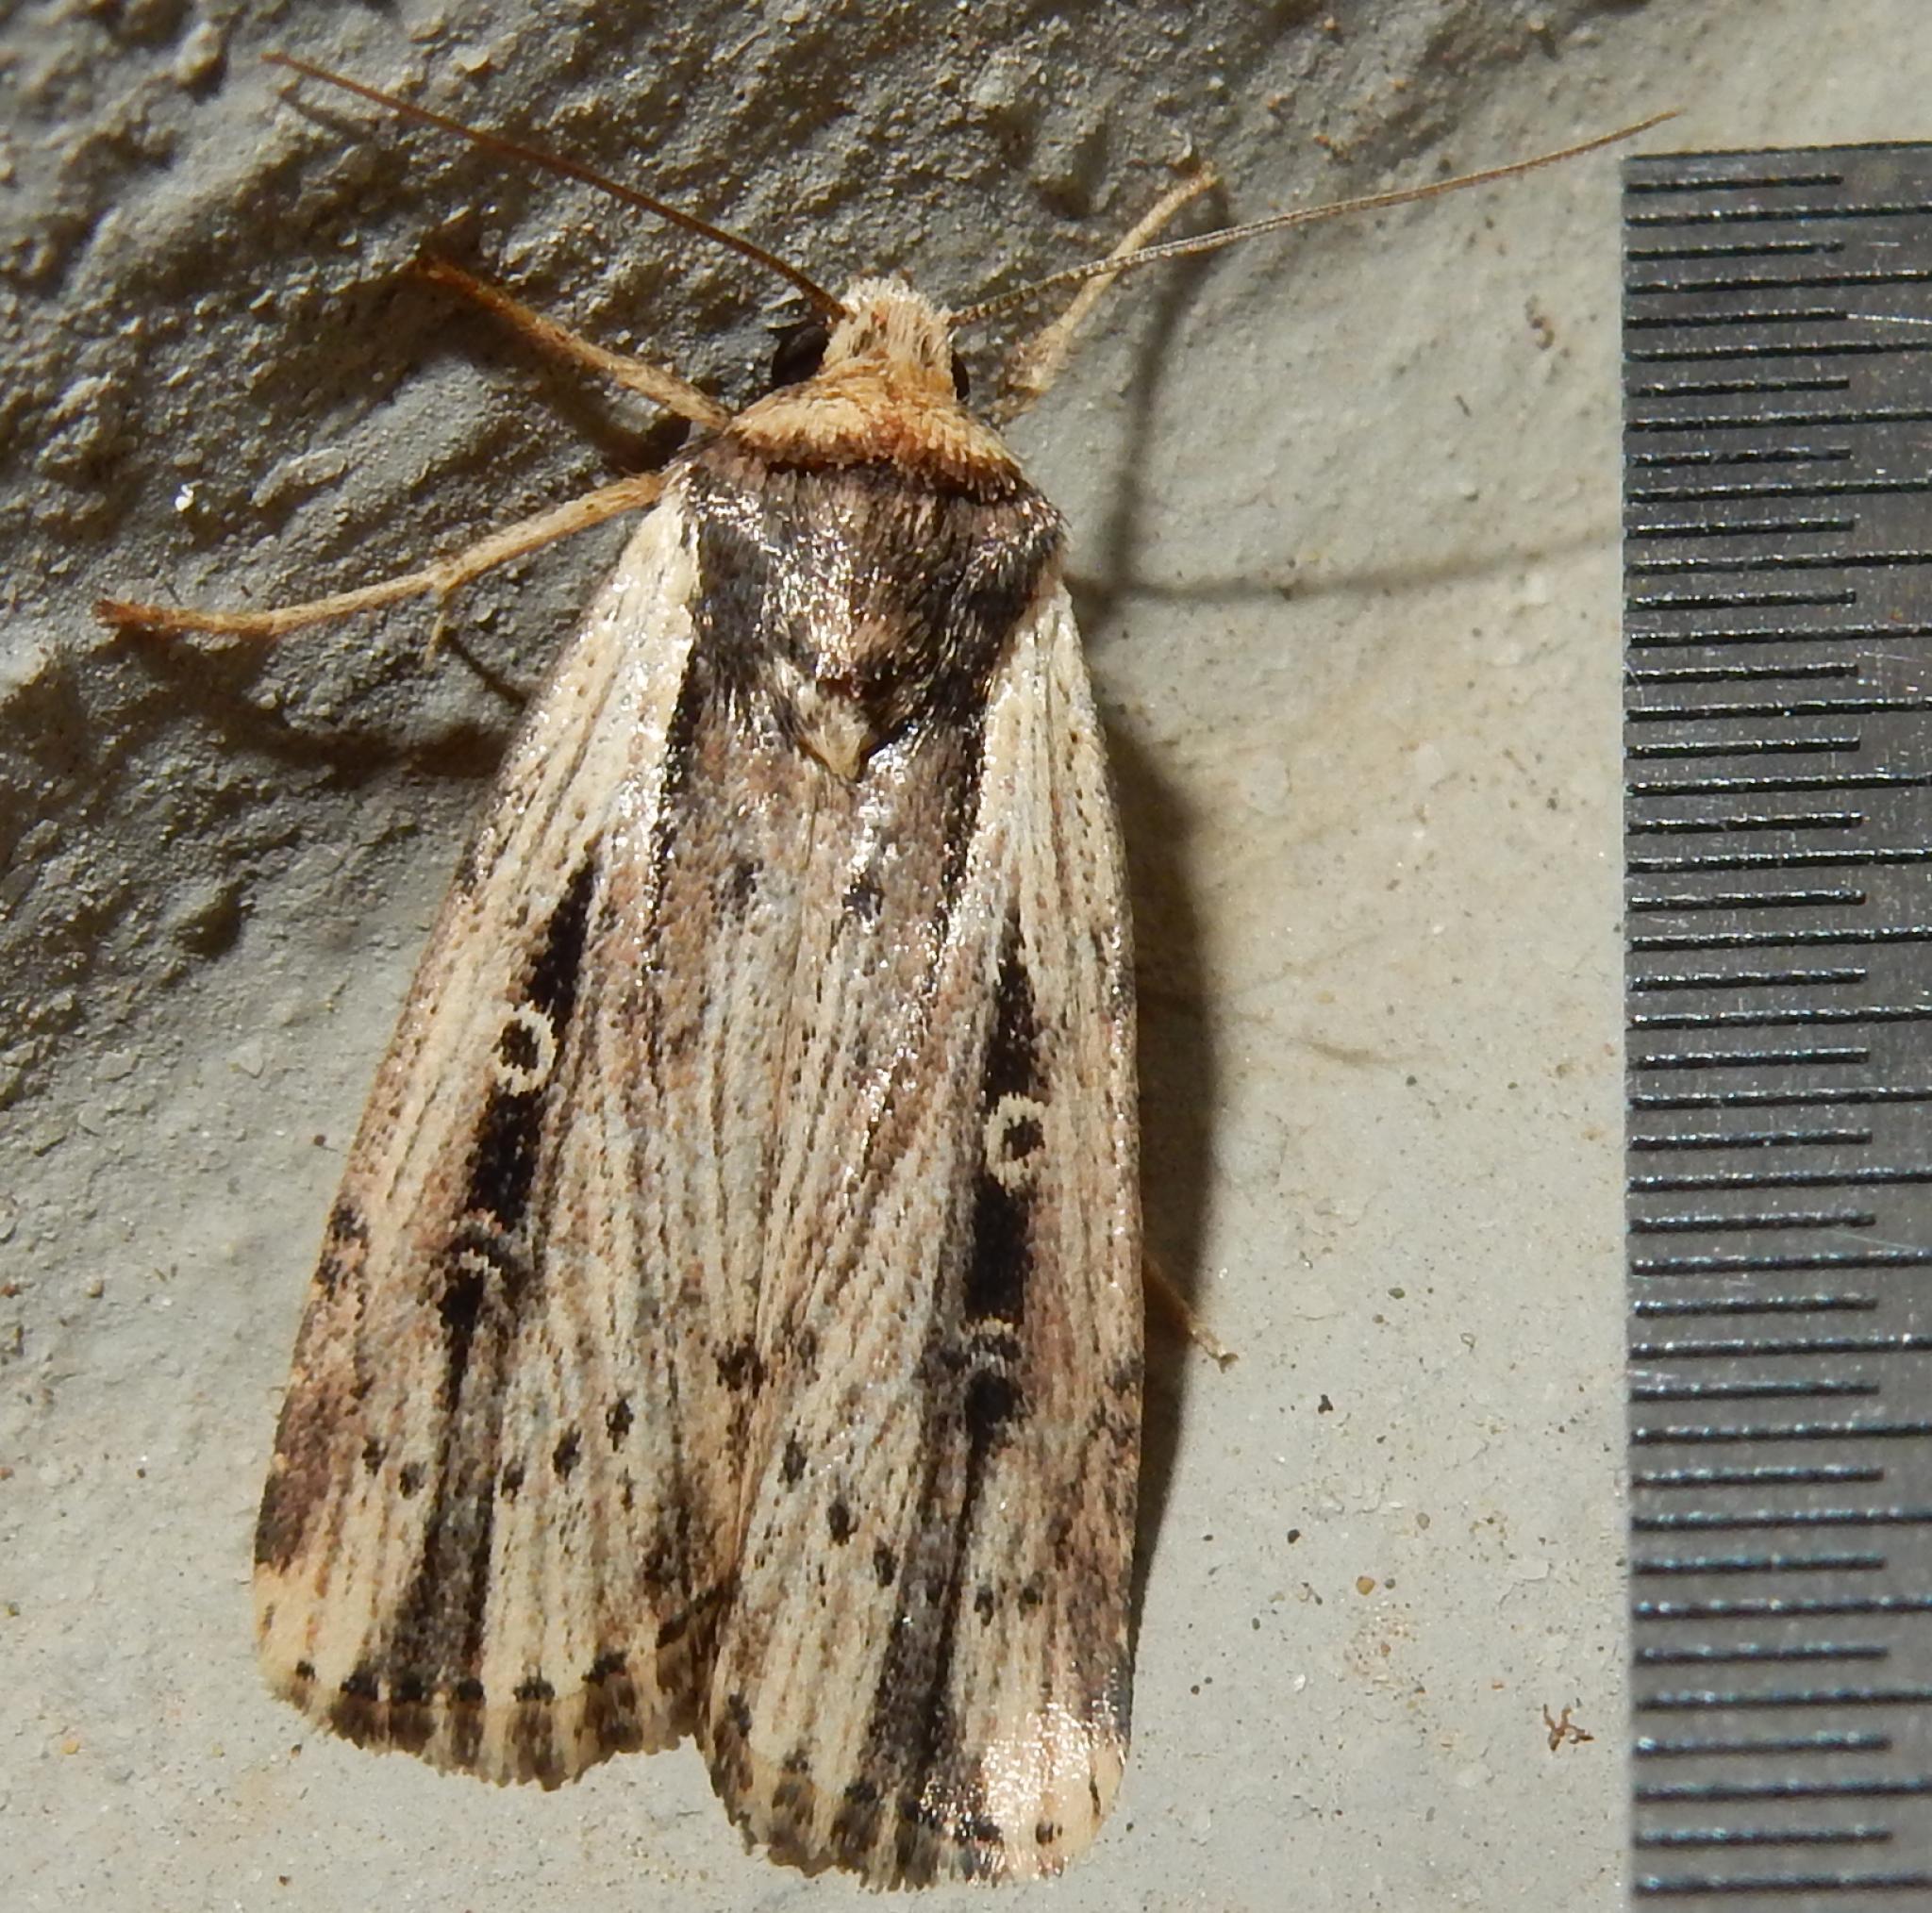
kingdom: Animalia
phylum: Arthropoda
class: Insecta
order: Lepidoptera
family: Noctuidae
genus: Axylia
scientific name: Axylia annularis
